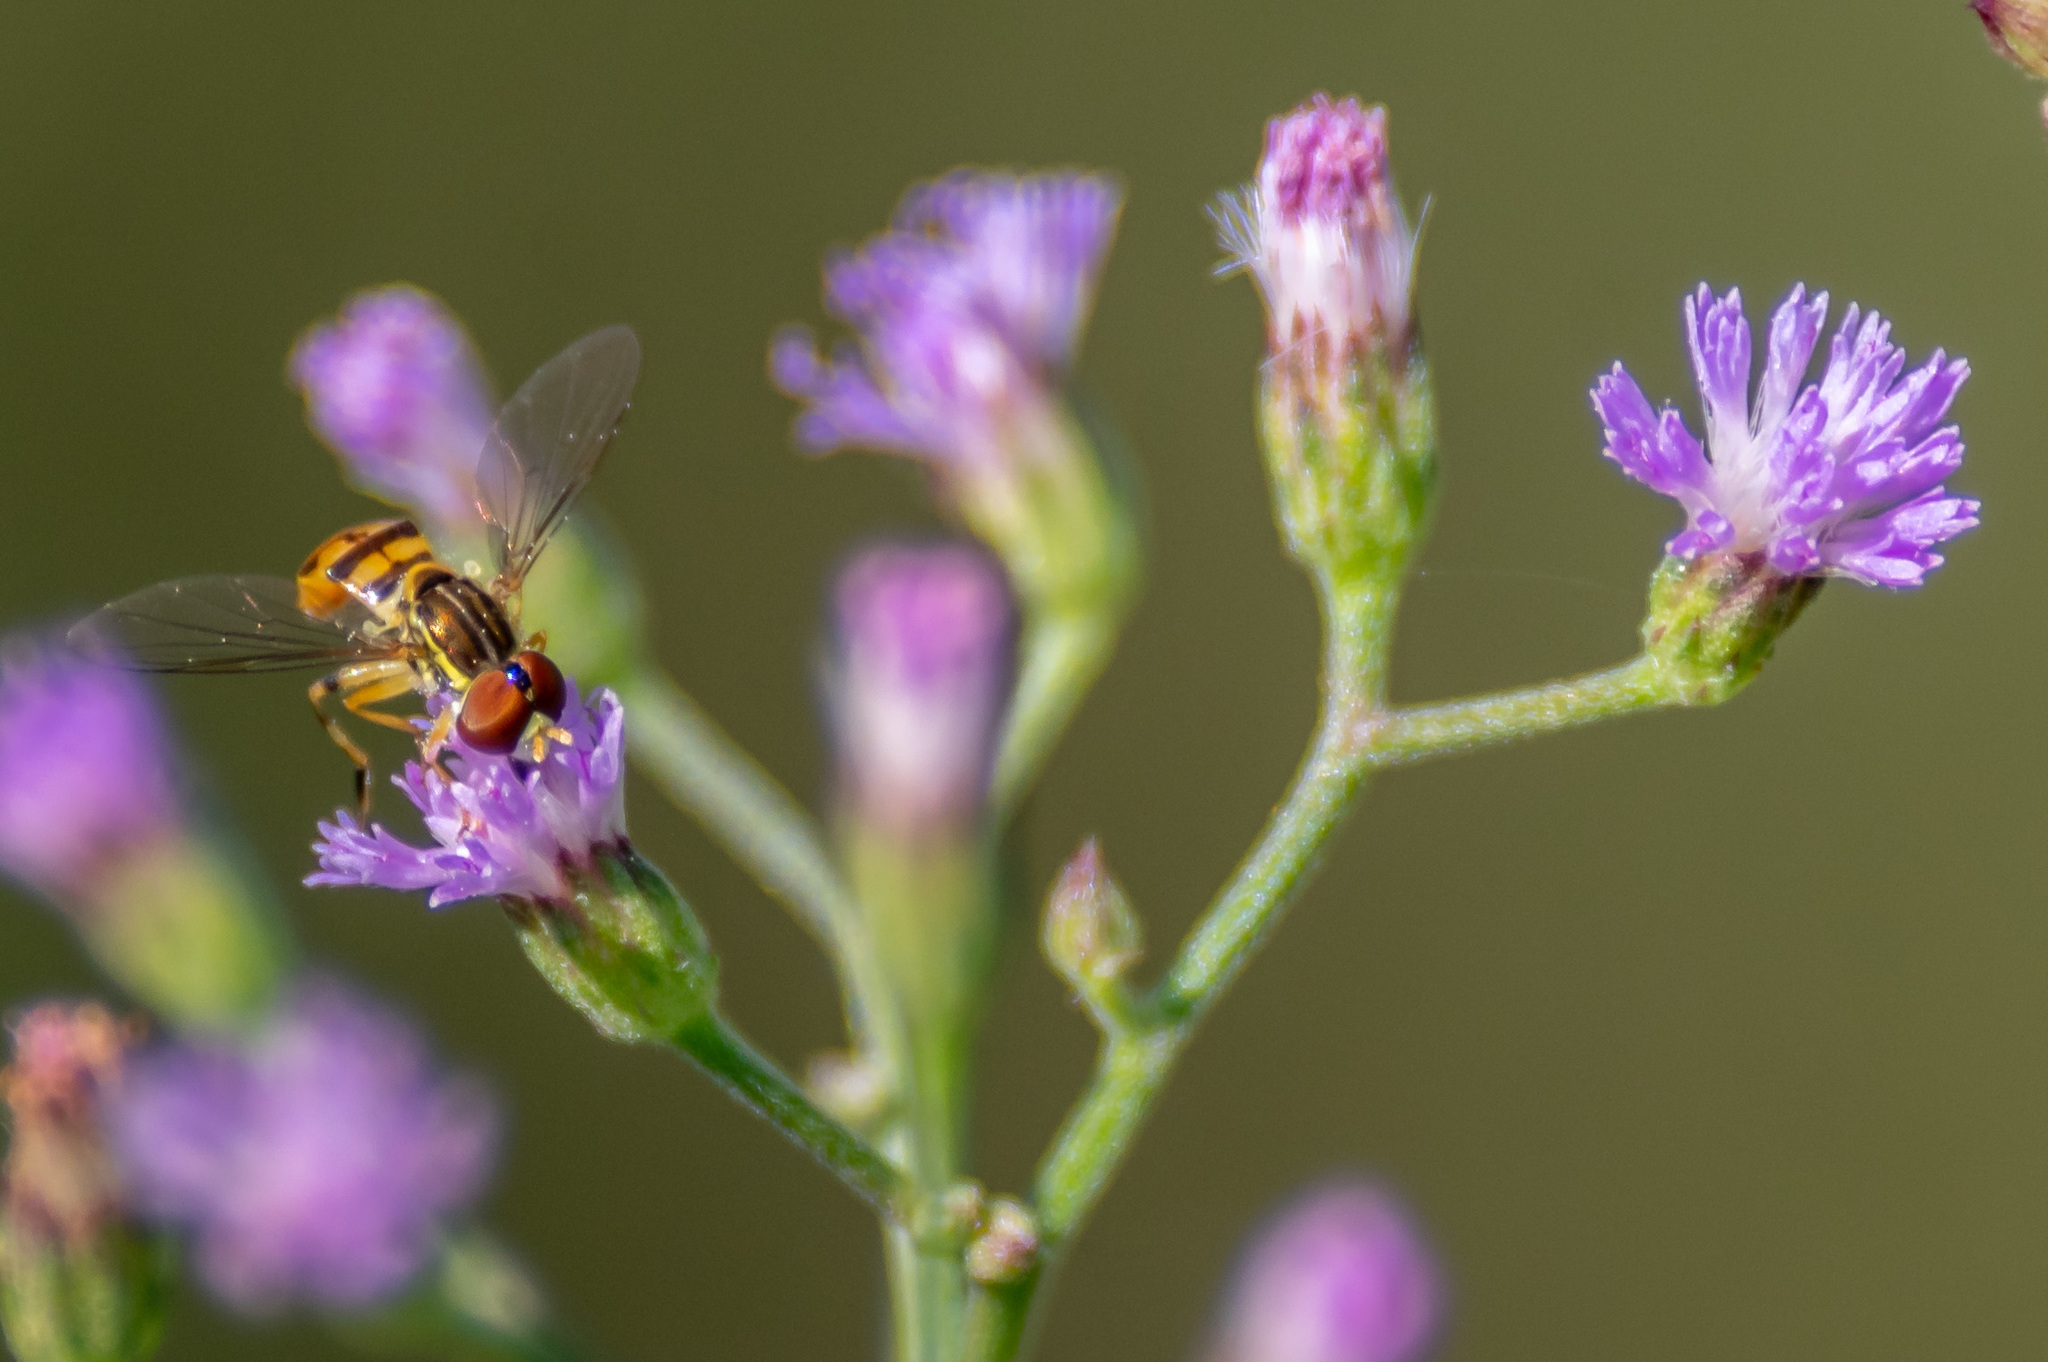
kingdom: Animalia
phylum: Arthropoda
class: Insecta
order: Diptera
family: Syrphidae
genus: Toxomerus
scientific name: Toxomerus floralis
